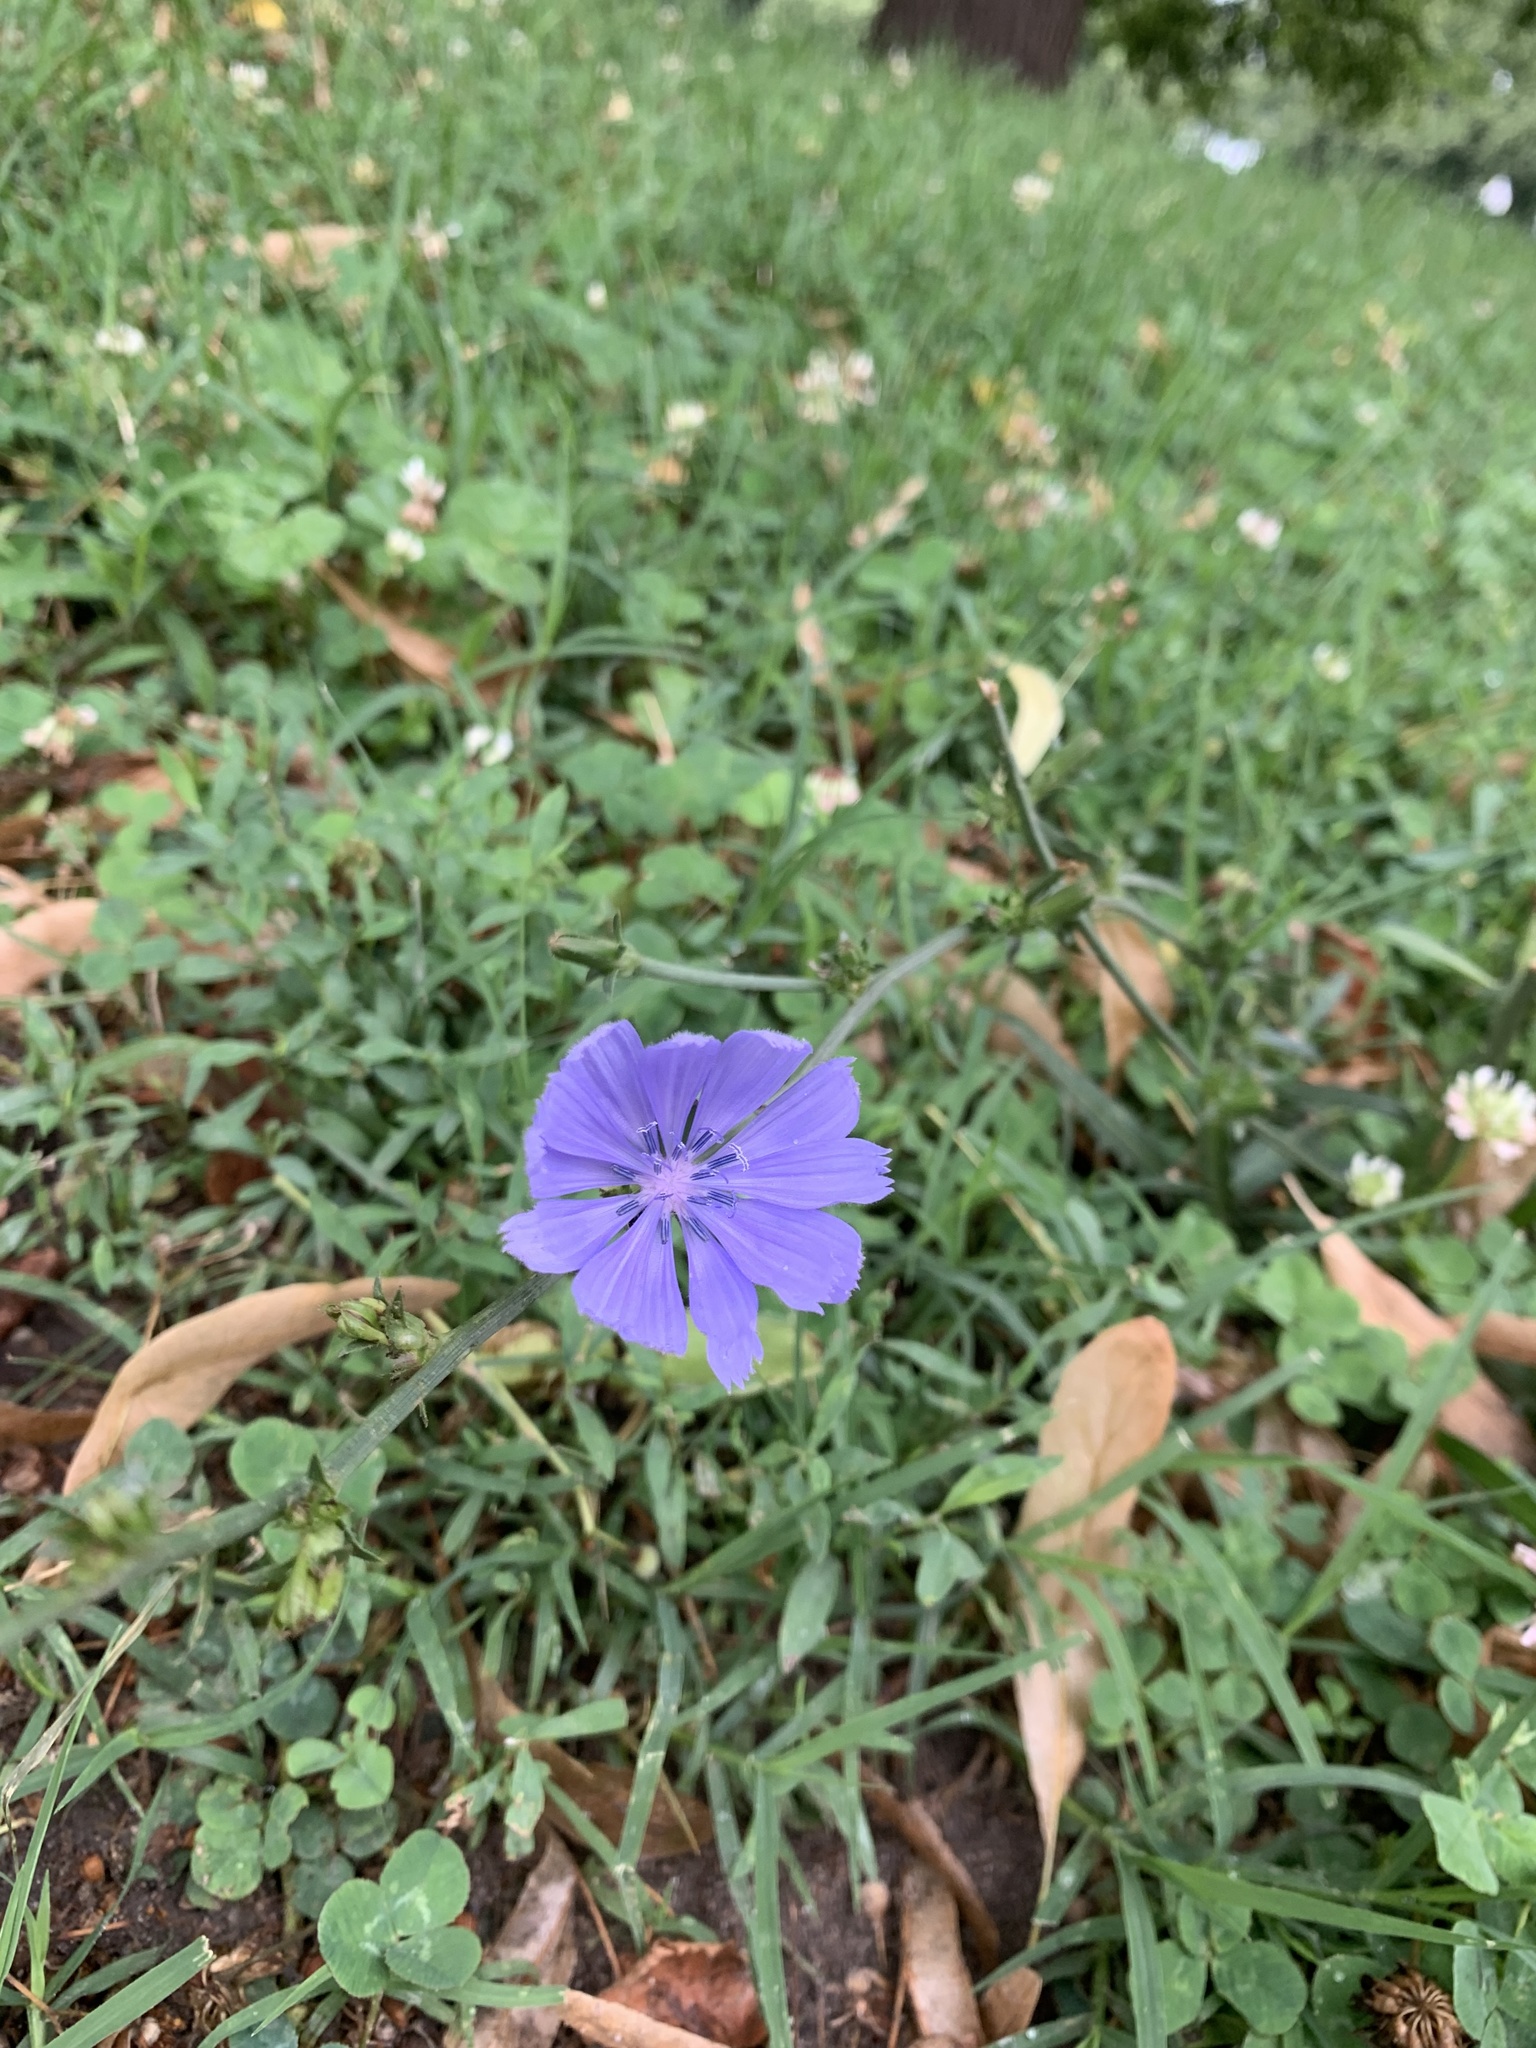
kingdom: Plantae
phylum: Tracheophyta
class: Magnoliopsida
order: Asterales
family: Asteraceae
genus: Cichorium
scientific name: Cichorium intybus
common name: Chicory
